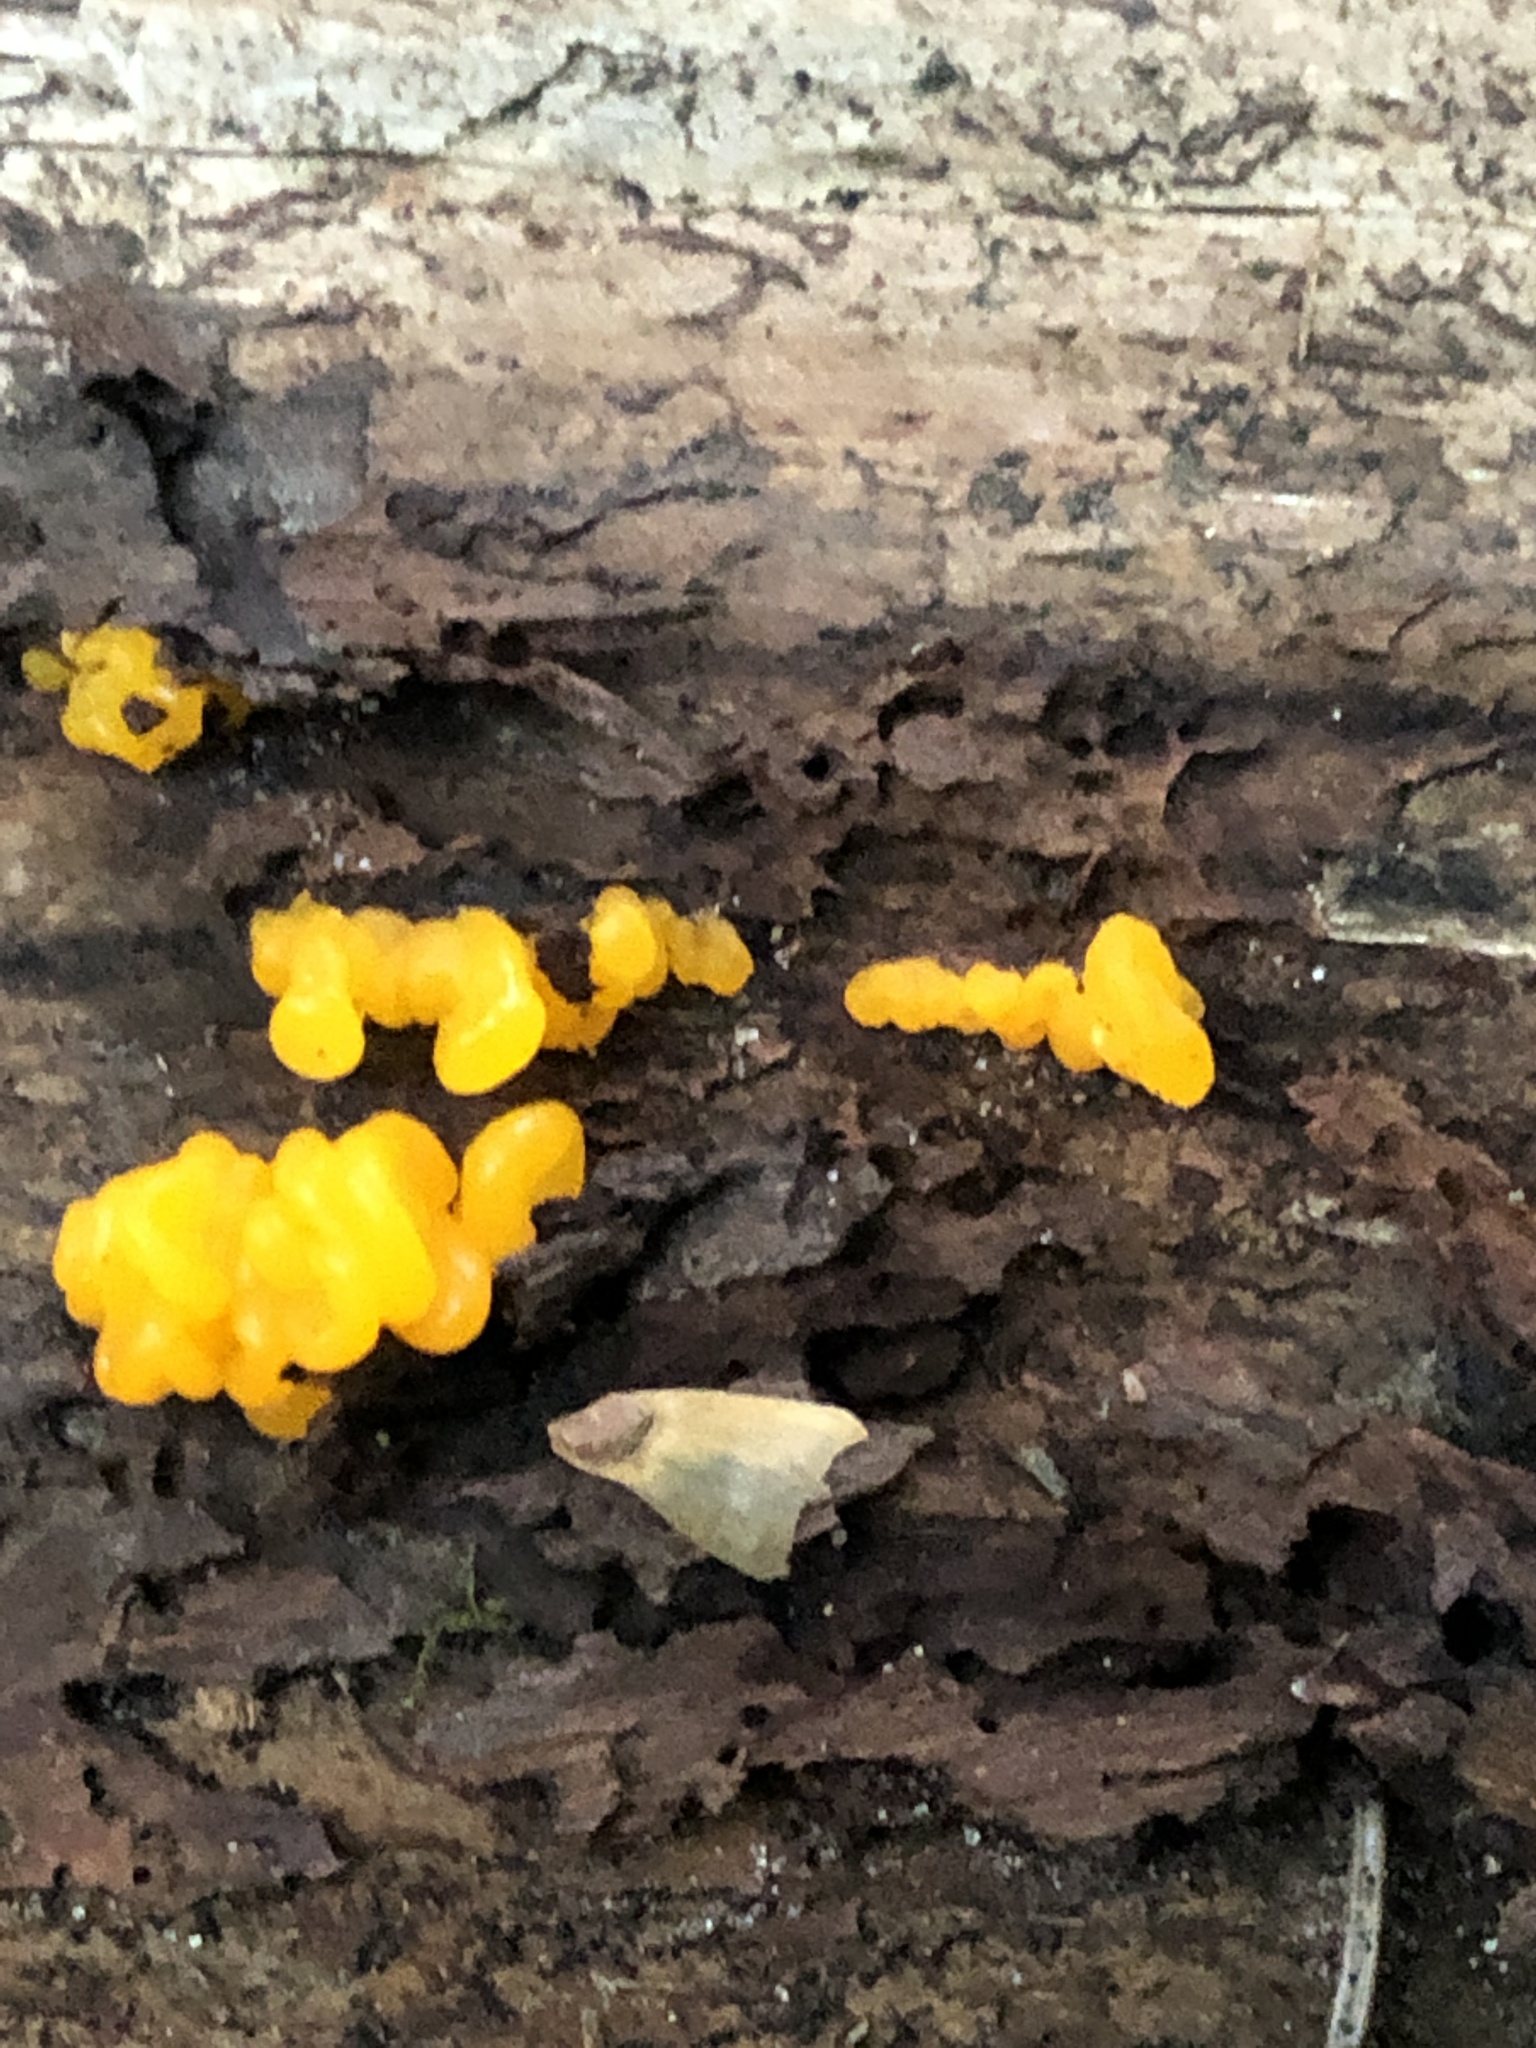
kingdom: Fungi
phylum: Basidiomycota
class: Dacrymycetes
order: Dacrymycetales
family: Dacrymycetaceae
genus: Dacrymyces
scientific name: Dacrymyces chrysospermus
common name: Orange jelly spot
